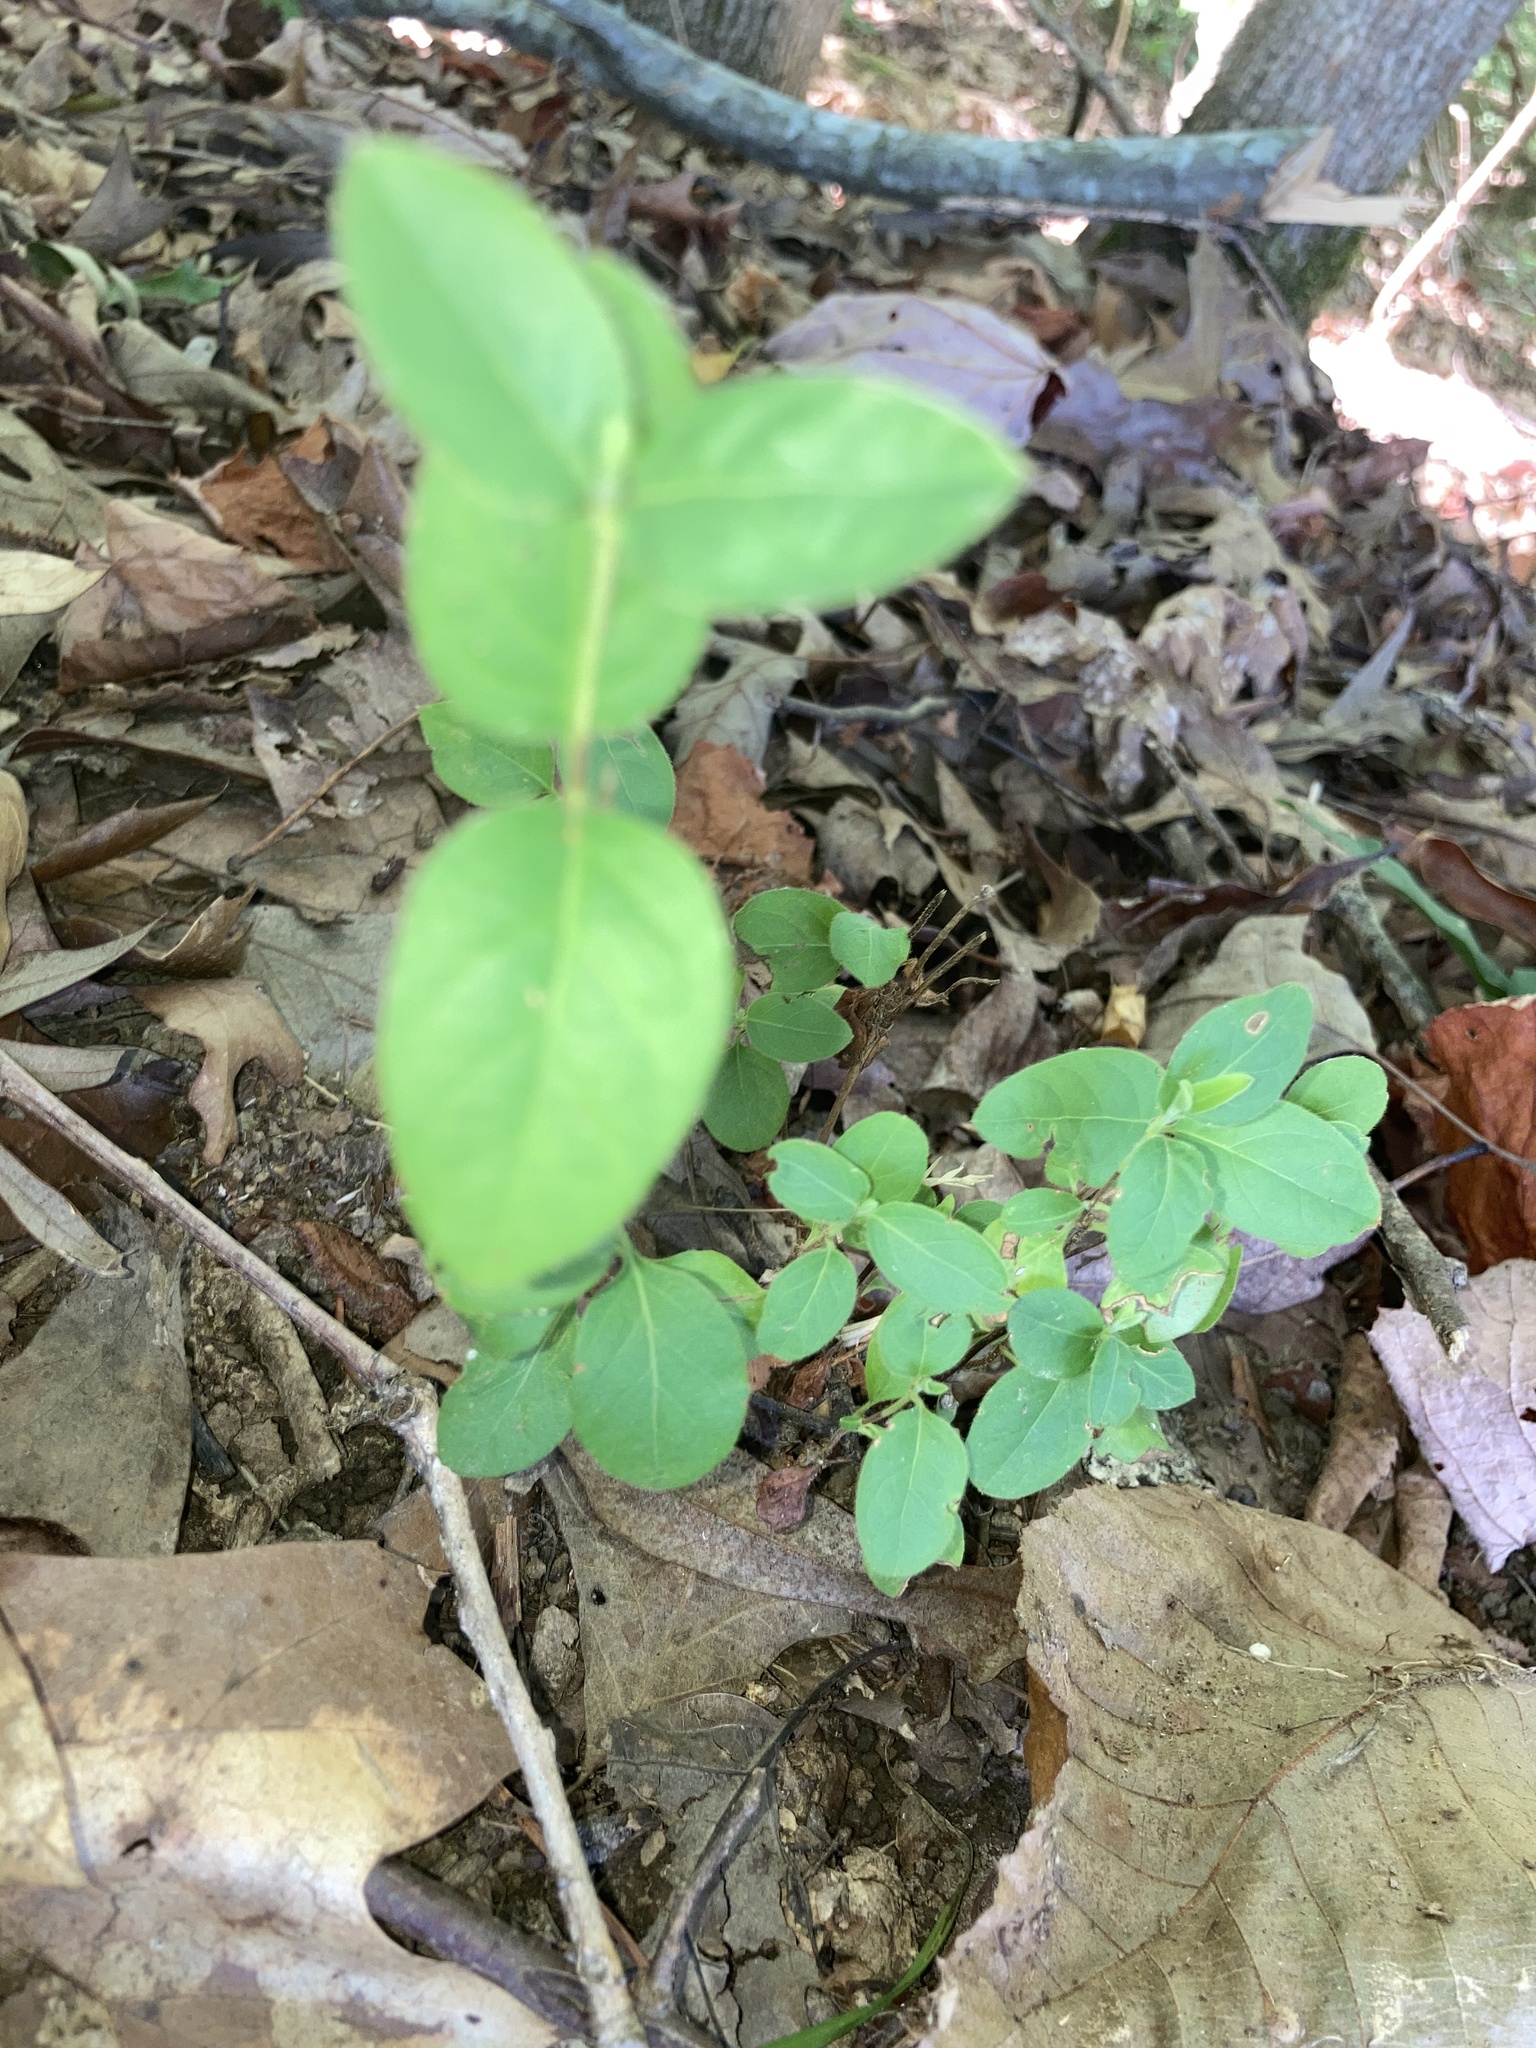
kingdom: Plantae
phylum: Tracheophyta
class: Magnoliopsida
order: Dipsacales
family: Caprifoliaceae
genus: Lonicera
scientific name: Lonicera japonica
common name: Japanese honeysuckle
